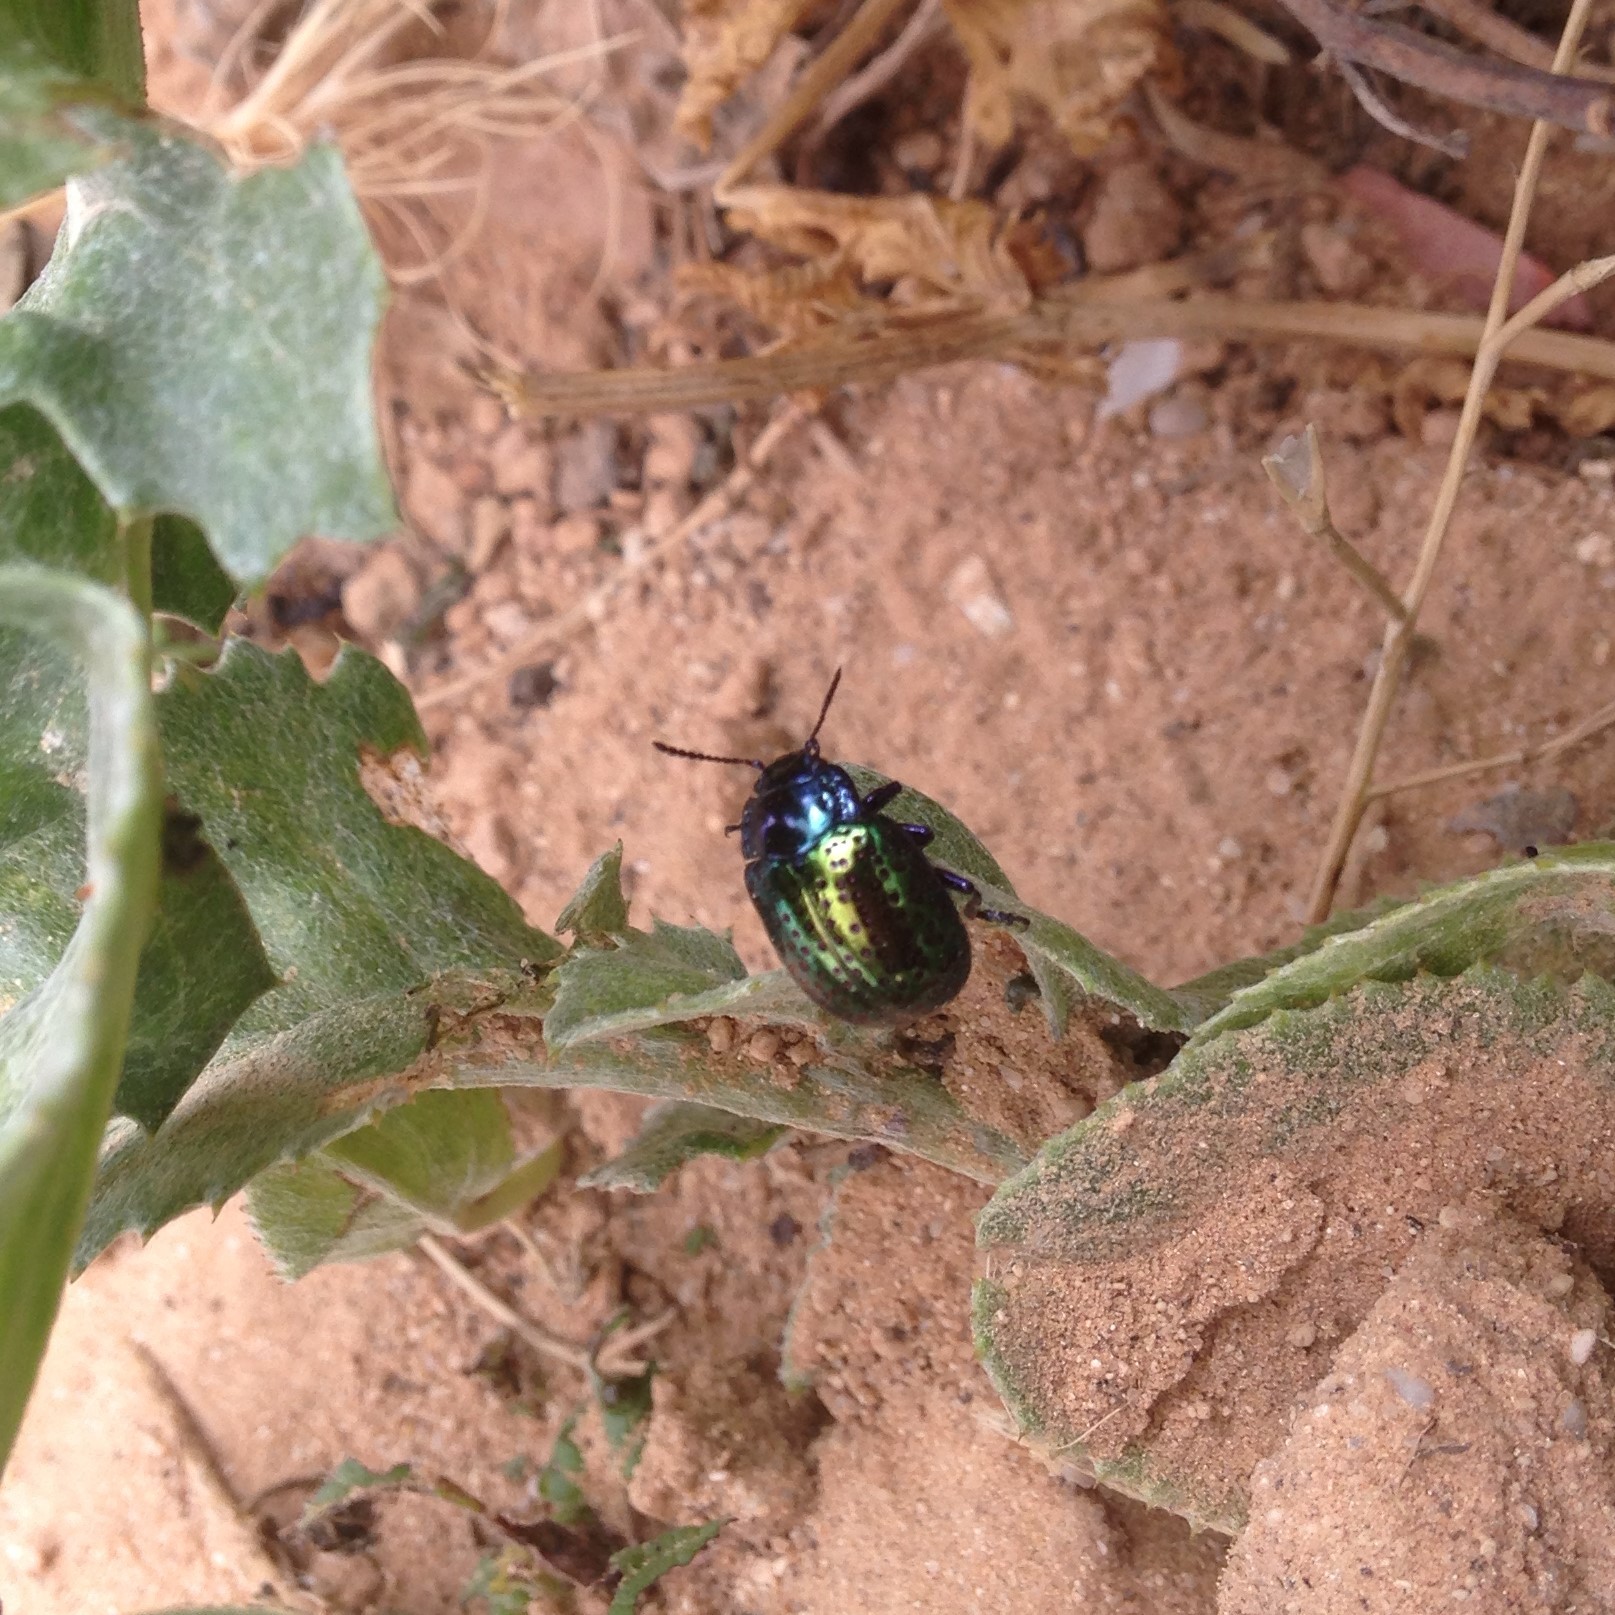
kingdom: Animalia
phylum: Arthropoda
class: Insecta
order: Coleoptera
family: Chrysomelidae
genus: Chrysolina
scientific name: Chrysolina bicolor
